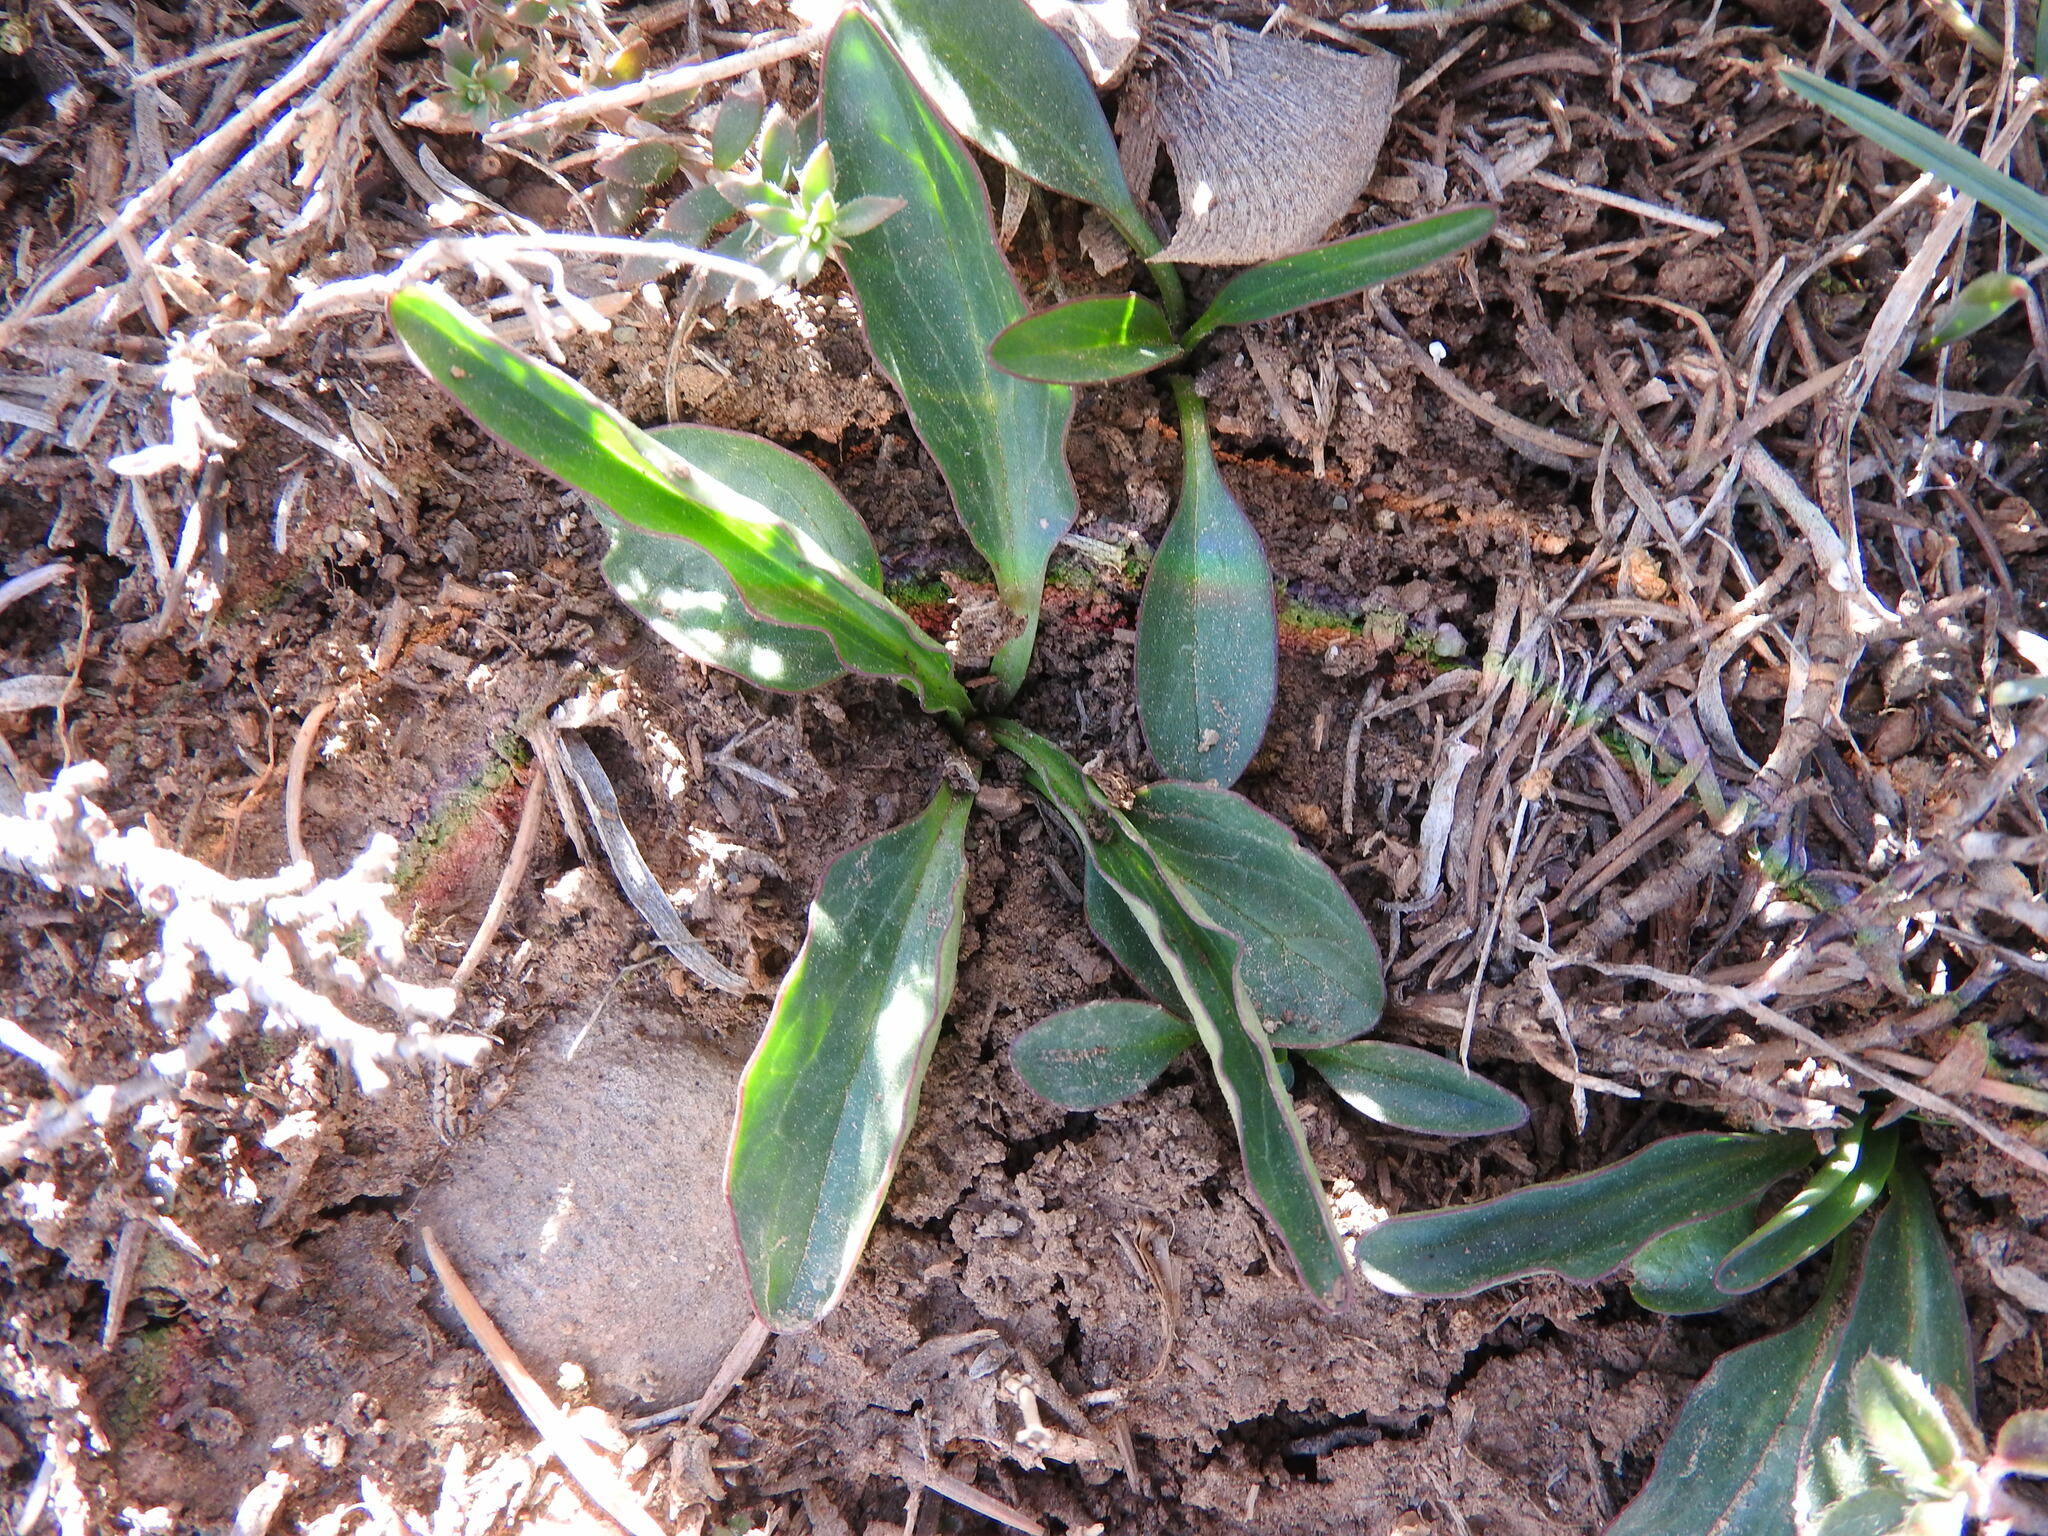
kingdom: Plantae
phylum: Tracheophyta
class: Magnoliopsida
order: Dipsacales
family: Caprifoliaceae
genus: Valeriana
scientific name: Valeriana tuberosa
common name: Tuberous valerian
